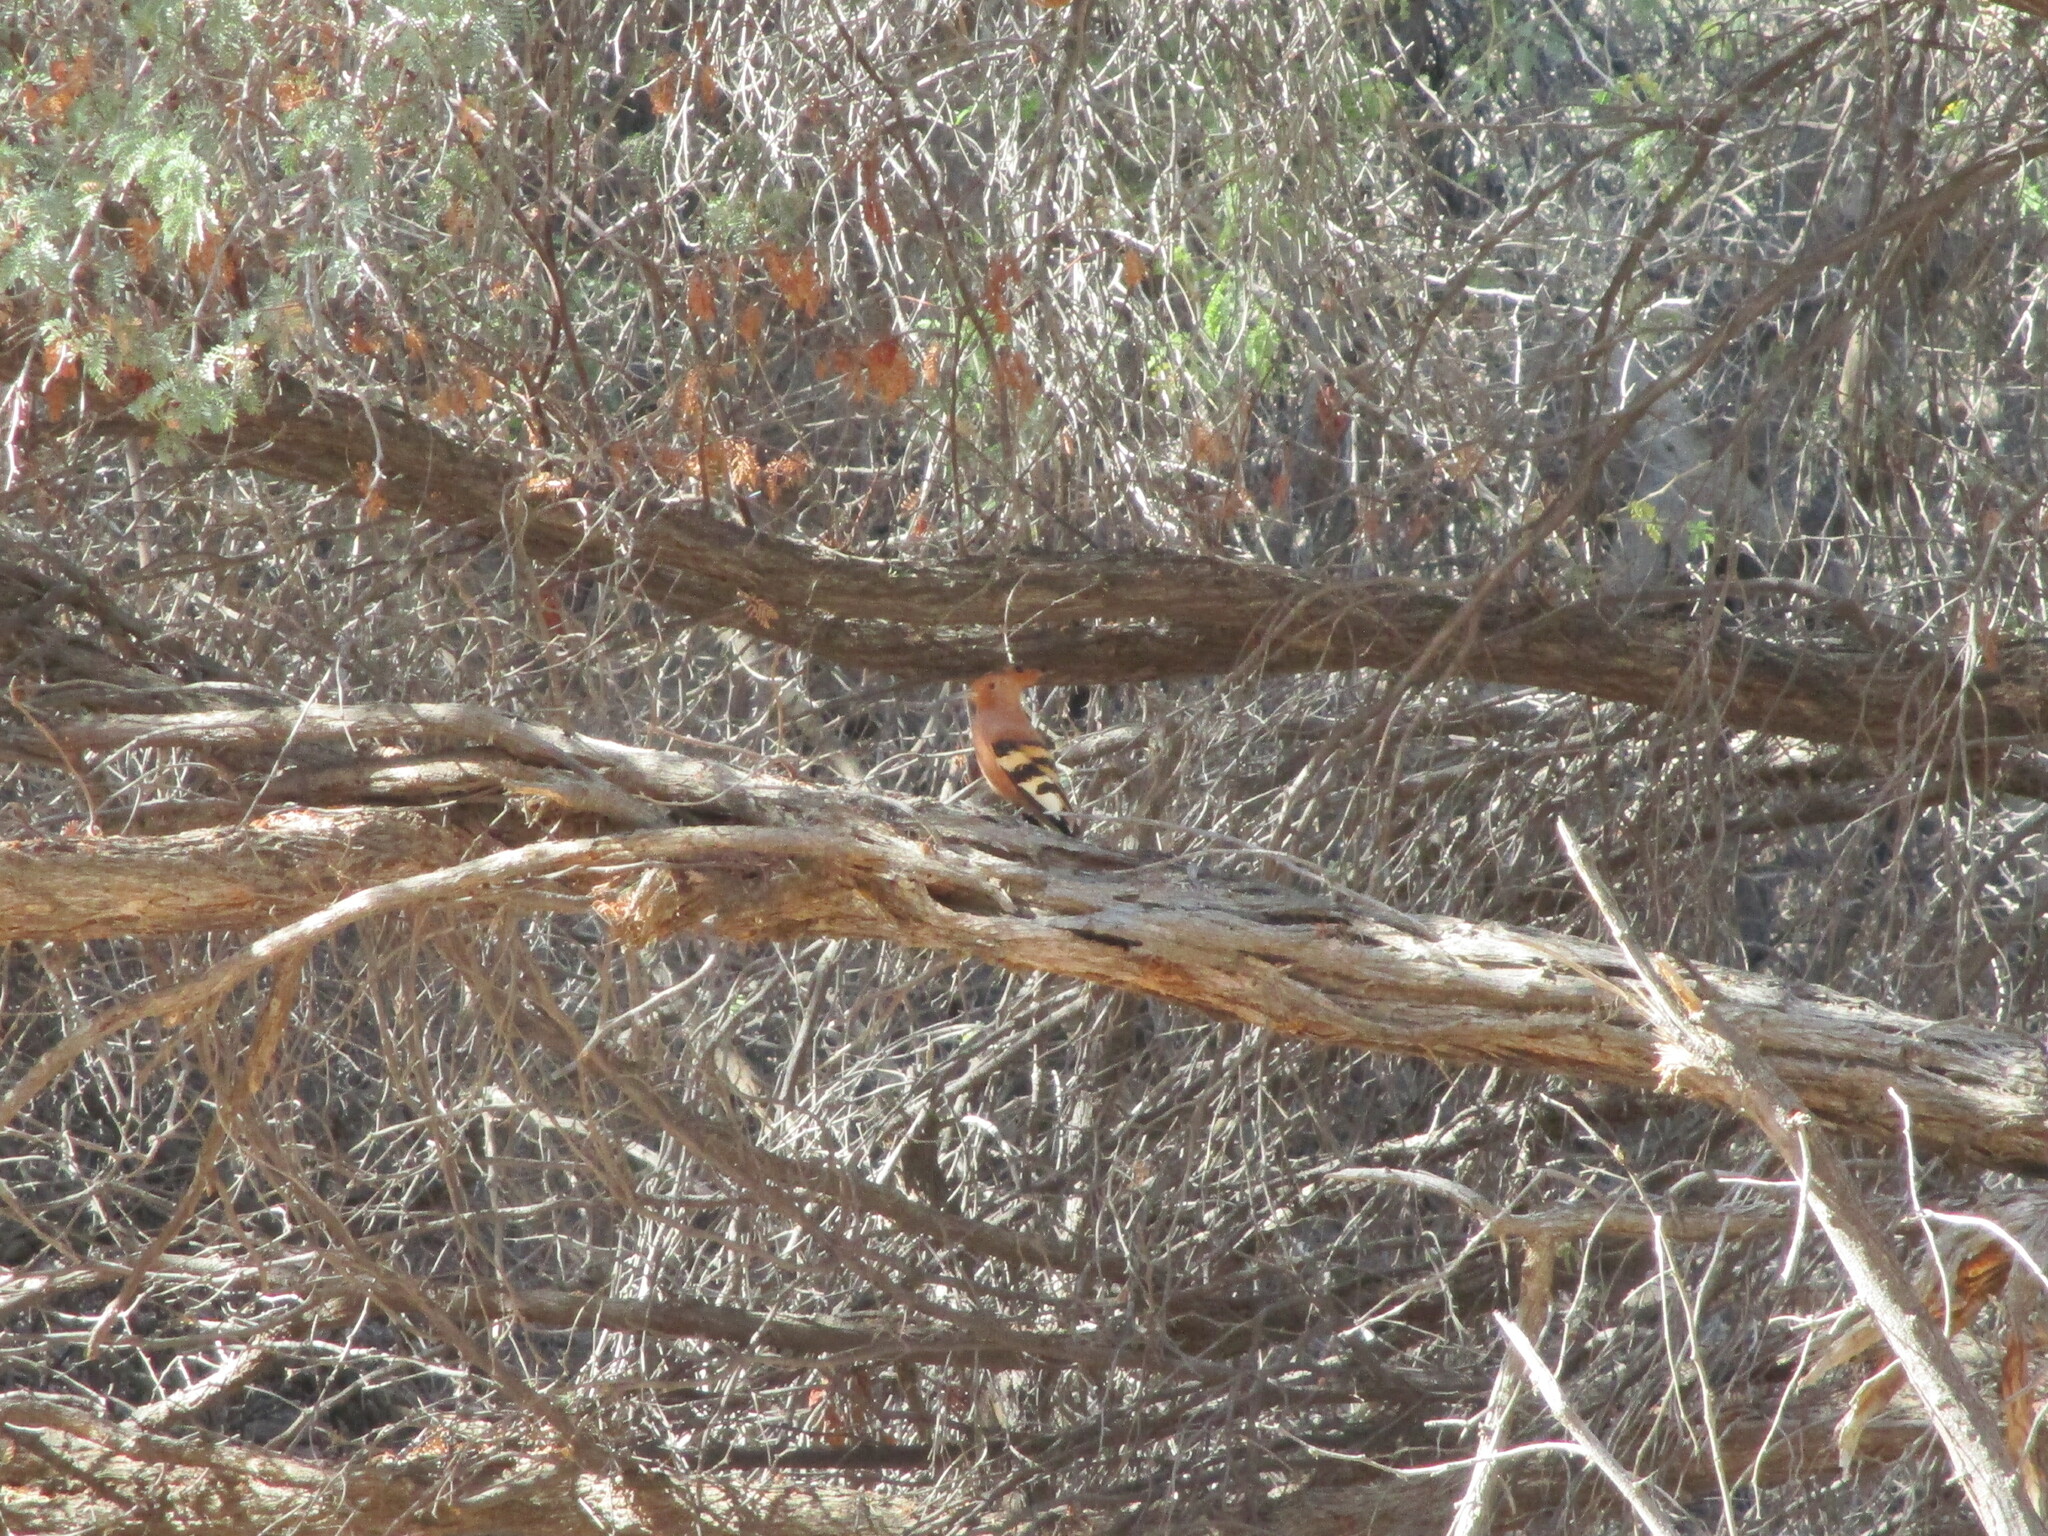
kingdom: Animalia
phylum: Chordata
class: Aves
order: Bucerotiformes
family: Upupidae
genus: Upupa
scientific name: Upupa africana
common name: African hoopoe
